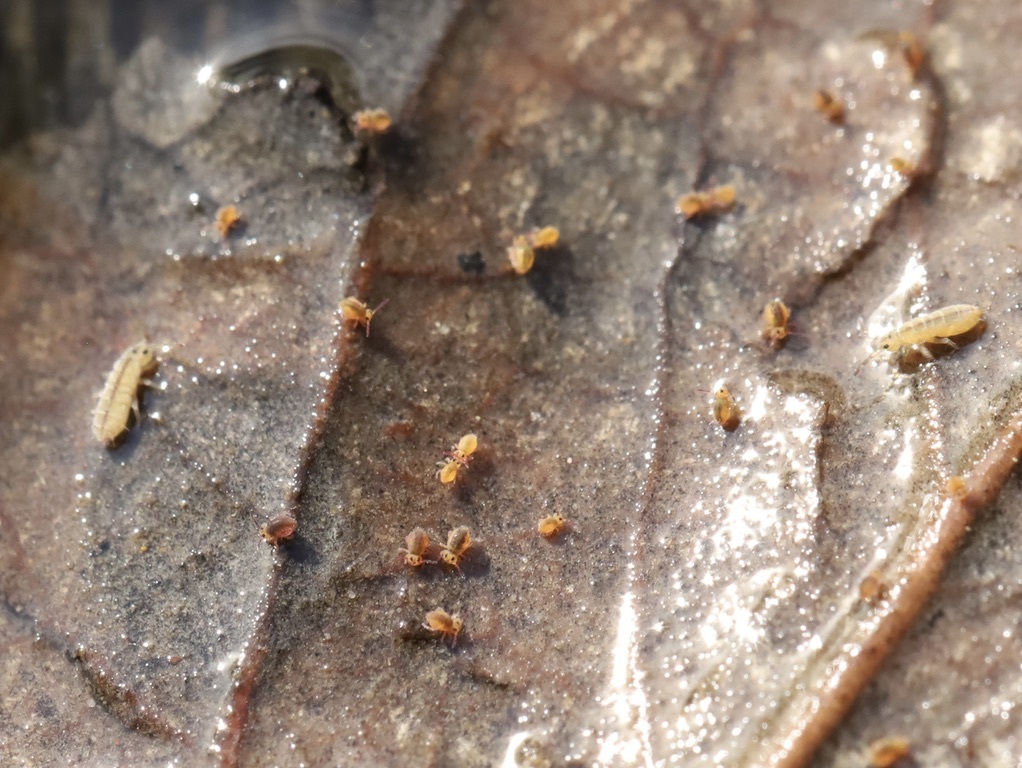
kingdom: Animalia
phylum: Arthropoda
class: Collembola
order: Symphypleona
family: Sminthurididae
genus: Sminthurides
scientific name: Sminthurides aquaticus
